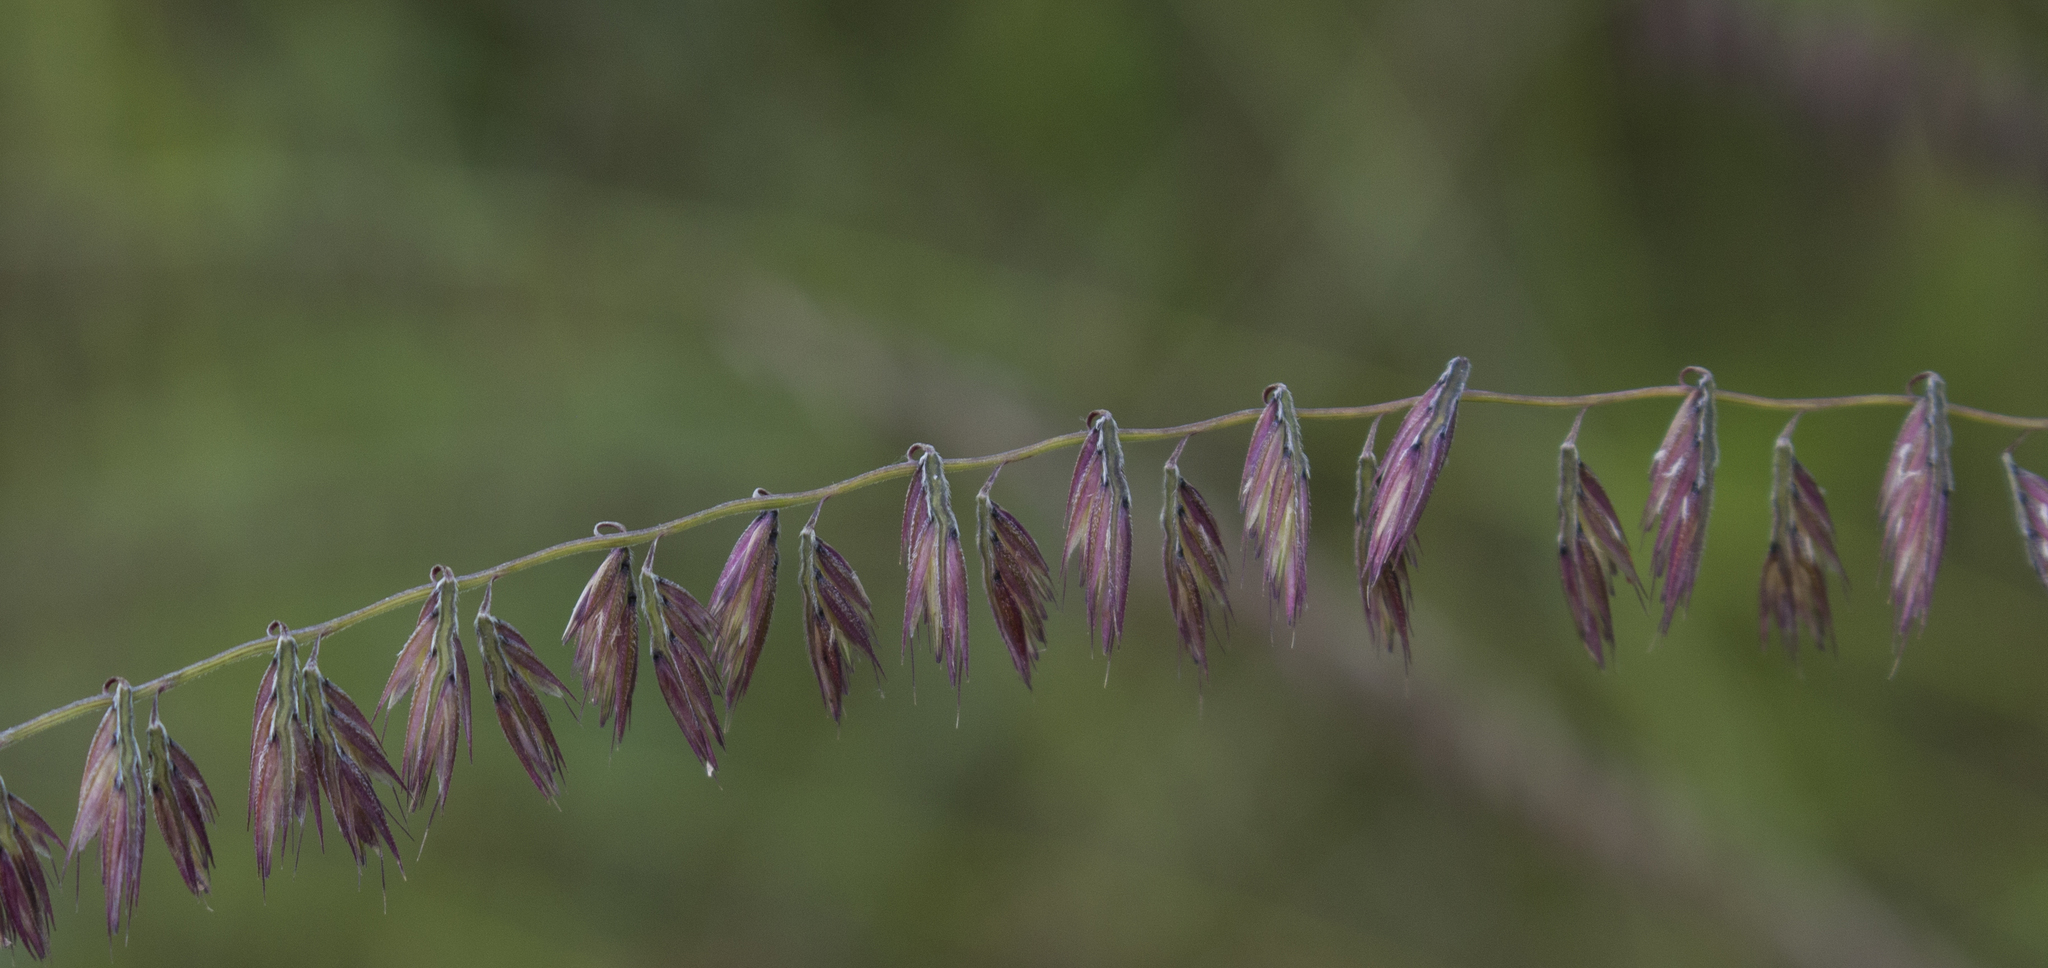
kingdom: Plantae
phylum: Tracheophyta
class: Liliopsida
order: Poales
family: Poaceae
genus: Bouteloua
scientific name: Bouteloua curtipendula
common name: Side-oats grama
